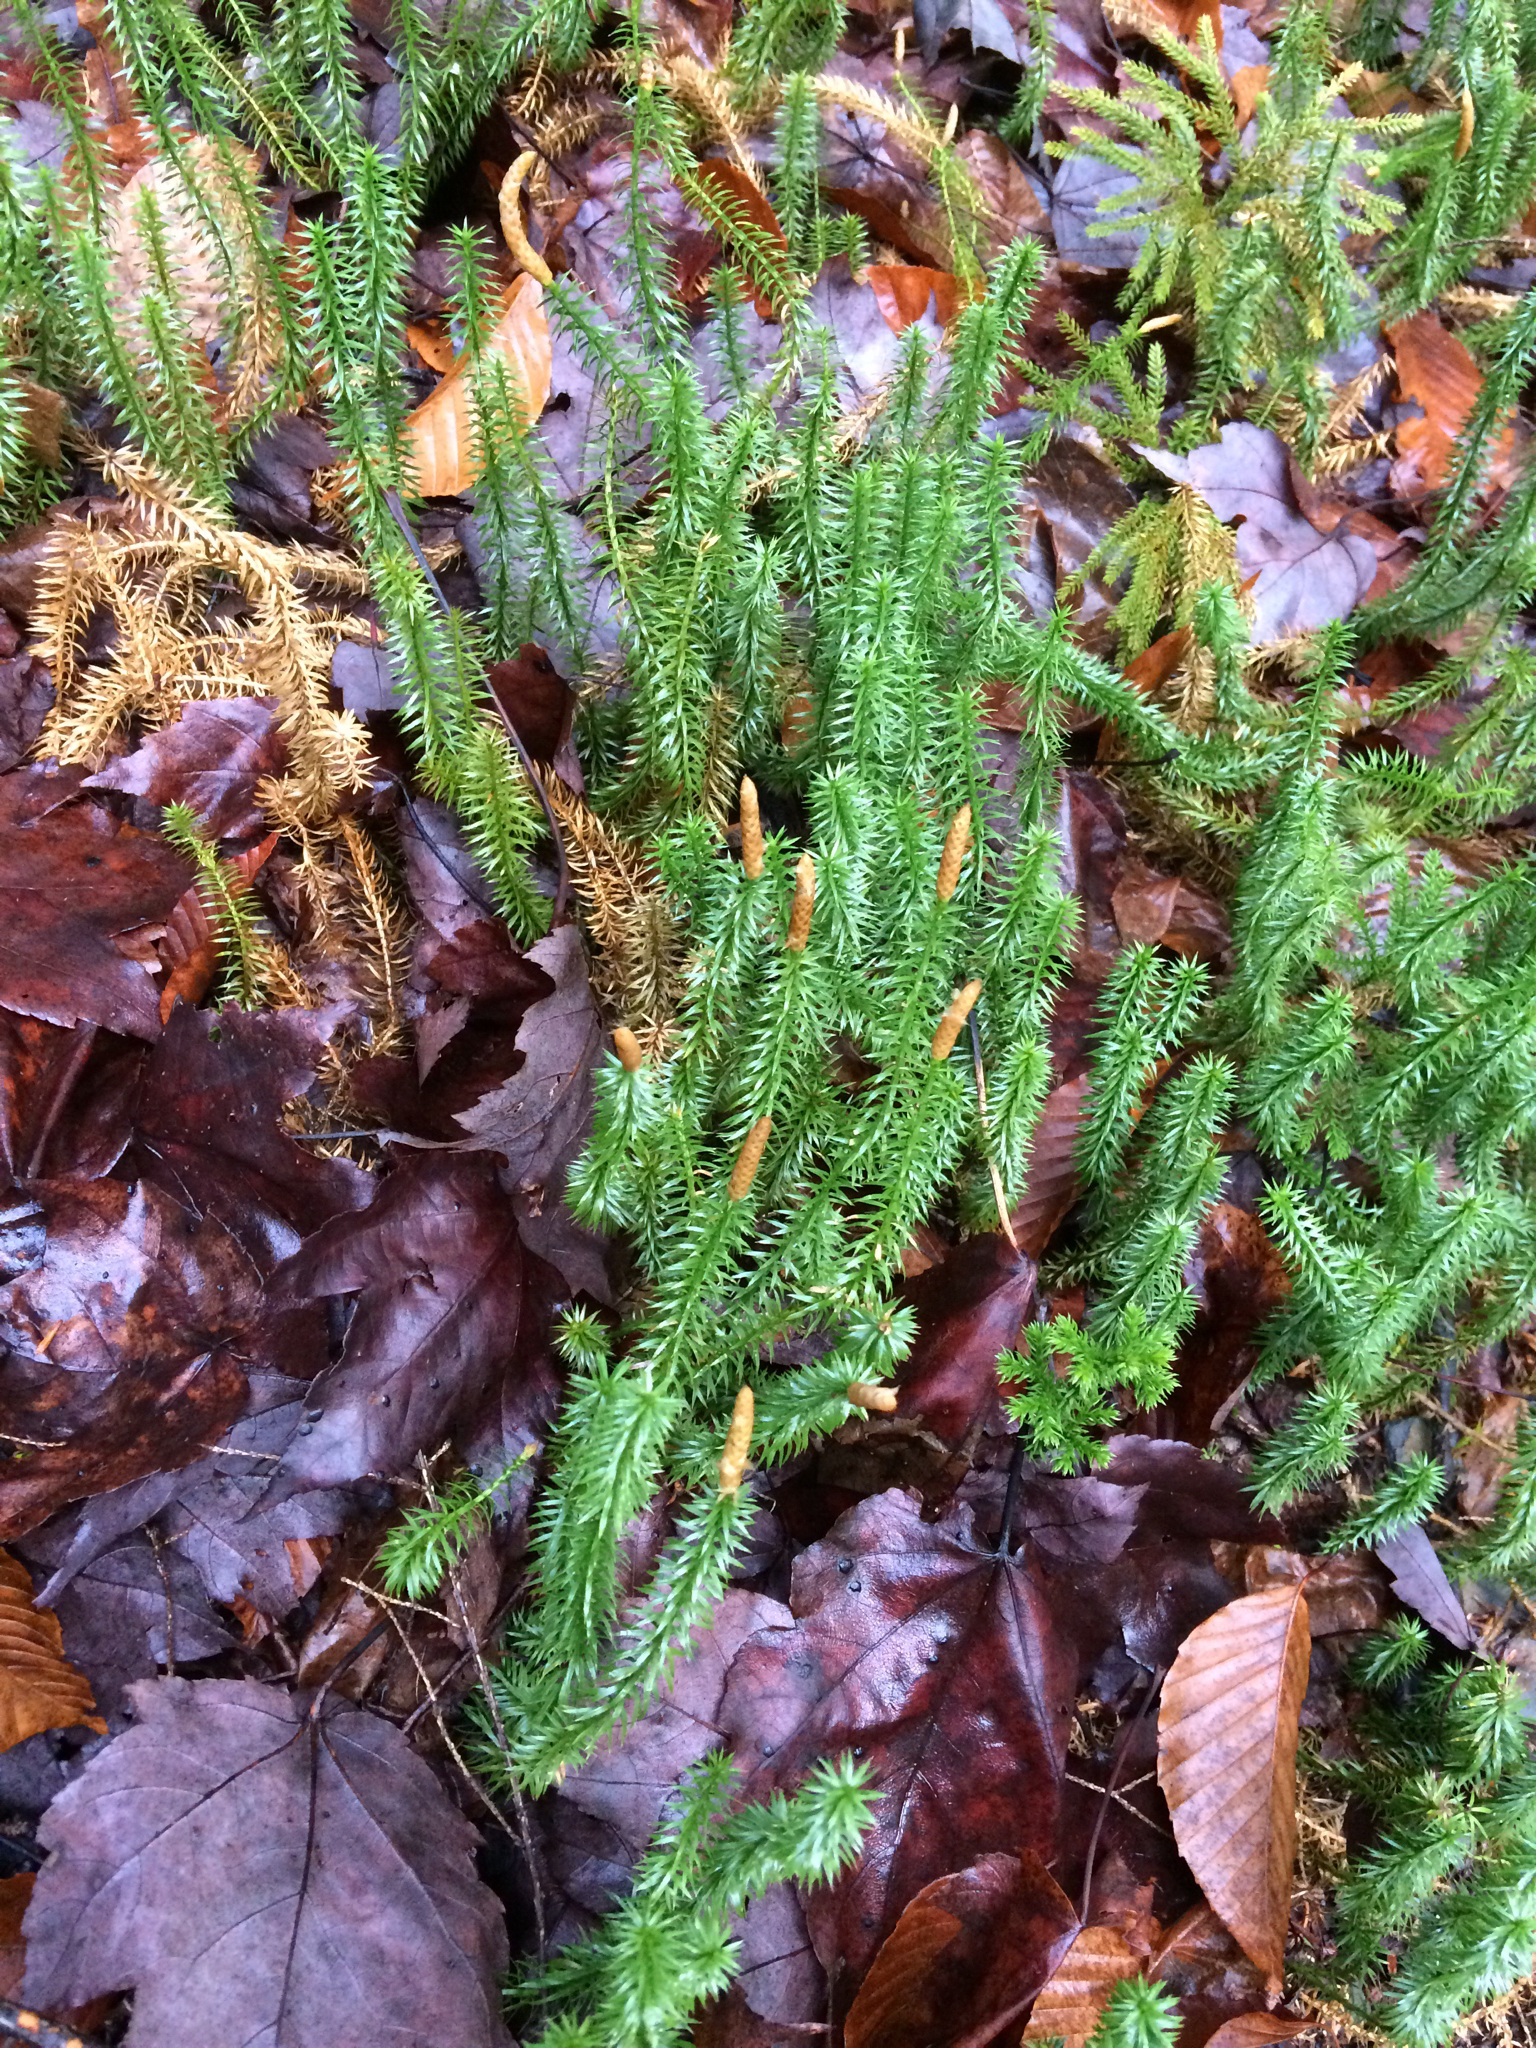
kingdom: Plantae
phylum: Tracheophyta
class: Lycopodiopsida
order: Lycopodiales
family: Lycopodiaceae
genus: Spinulum
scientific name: Spinulum annotinum
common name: Interrupted club-moss
